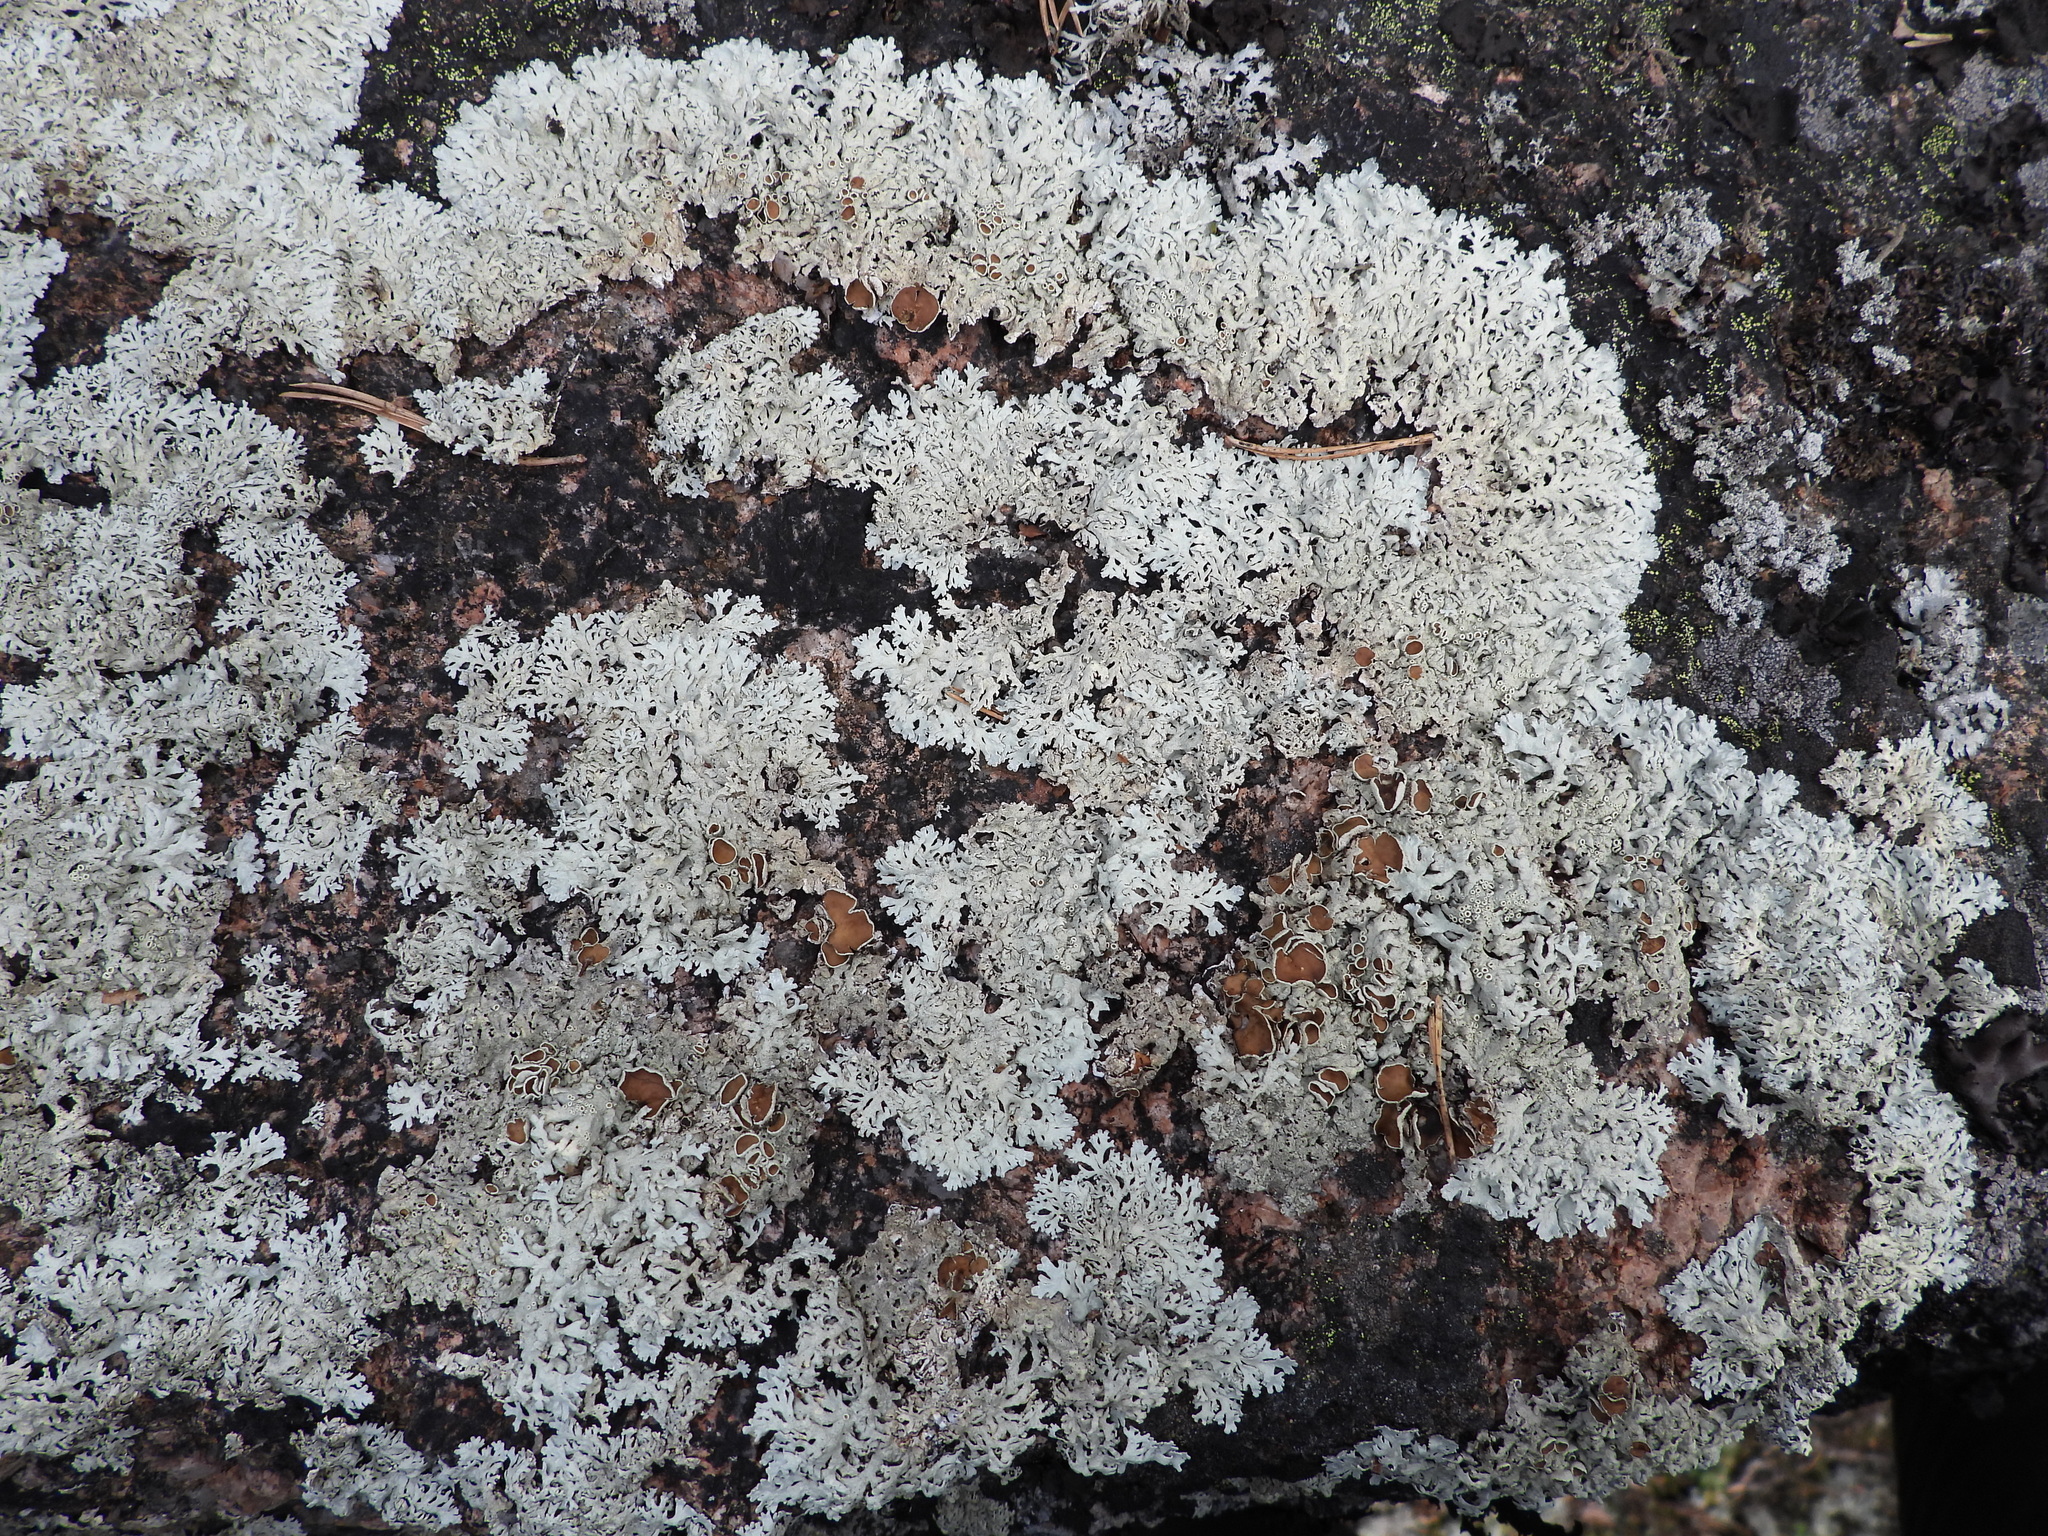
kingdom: Fungi
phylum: Ascomycota
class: Lecanoromycetes
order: Lecanorales
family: Parmeliaceae
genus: Arctoparmelia
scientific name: Arctoparmelia centrifuga
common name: Concentric ring lichen
